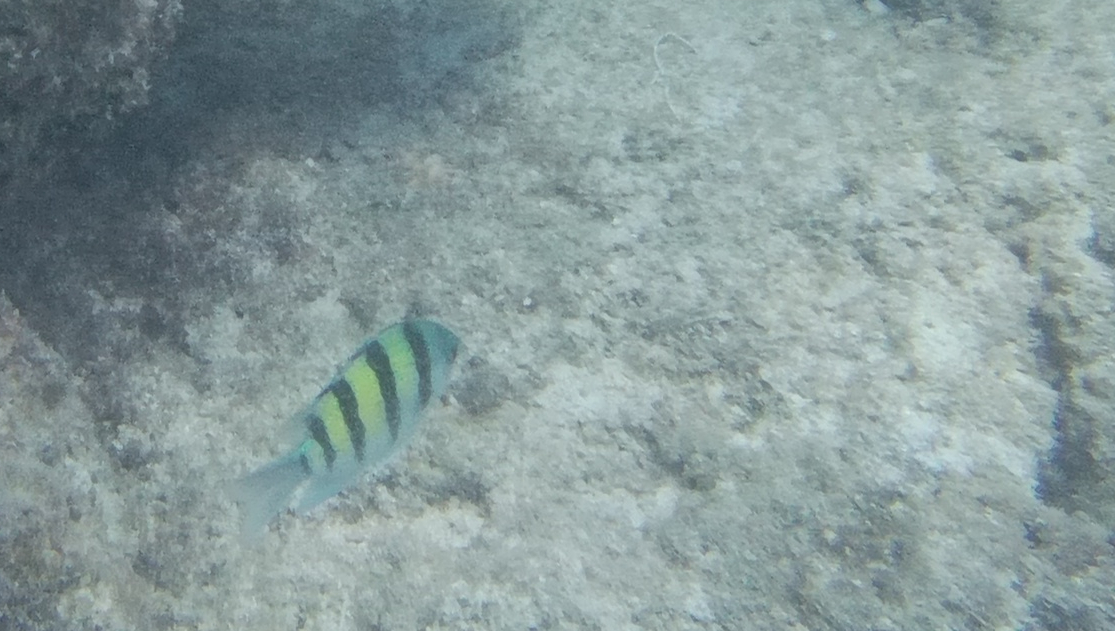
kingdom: Animalia
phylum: Chordata
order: Perciformes
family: Pomacentridae
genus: Abudefduf
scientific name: Abudefduf vaigiensis
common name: Indo-pacific sergeant
